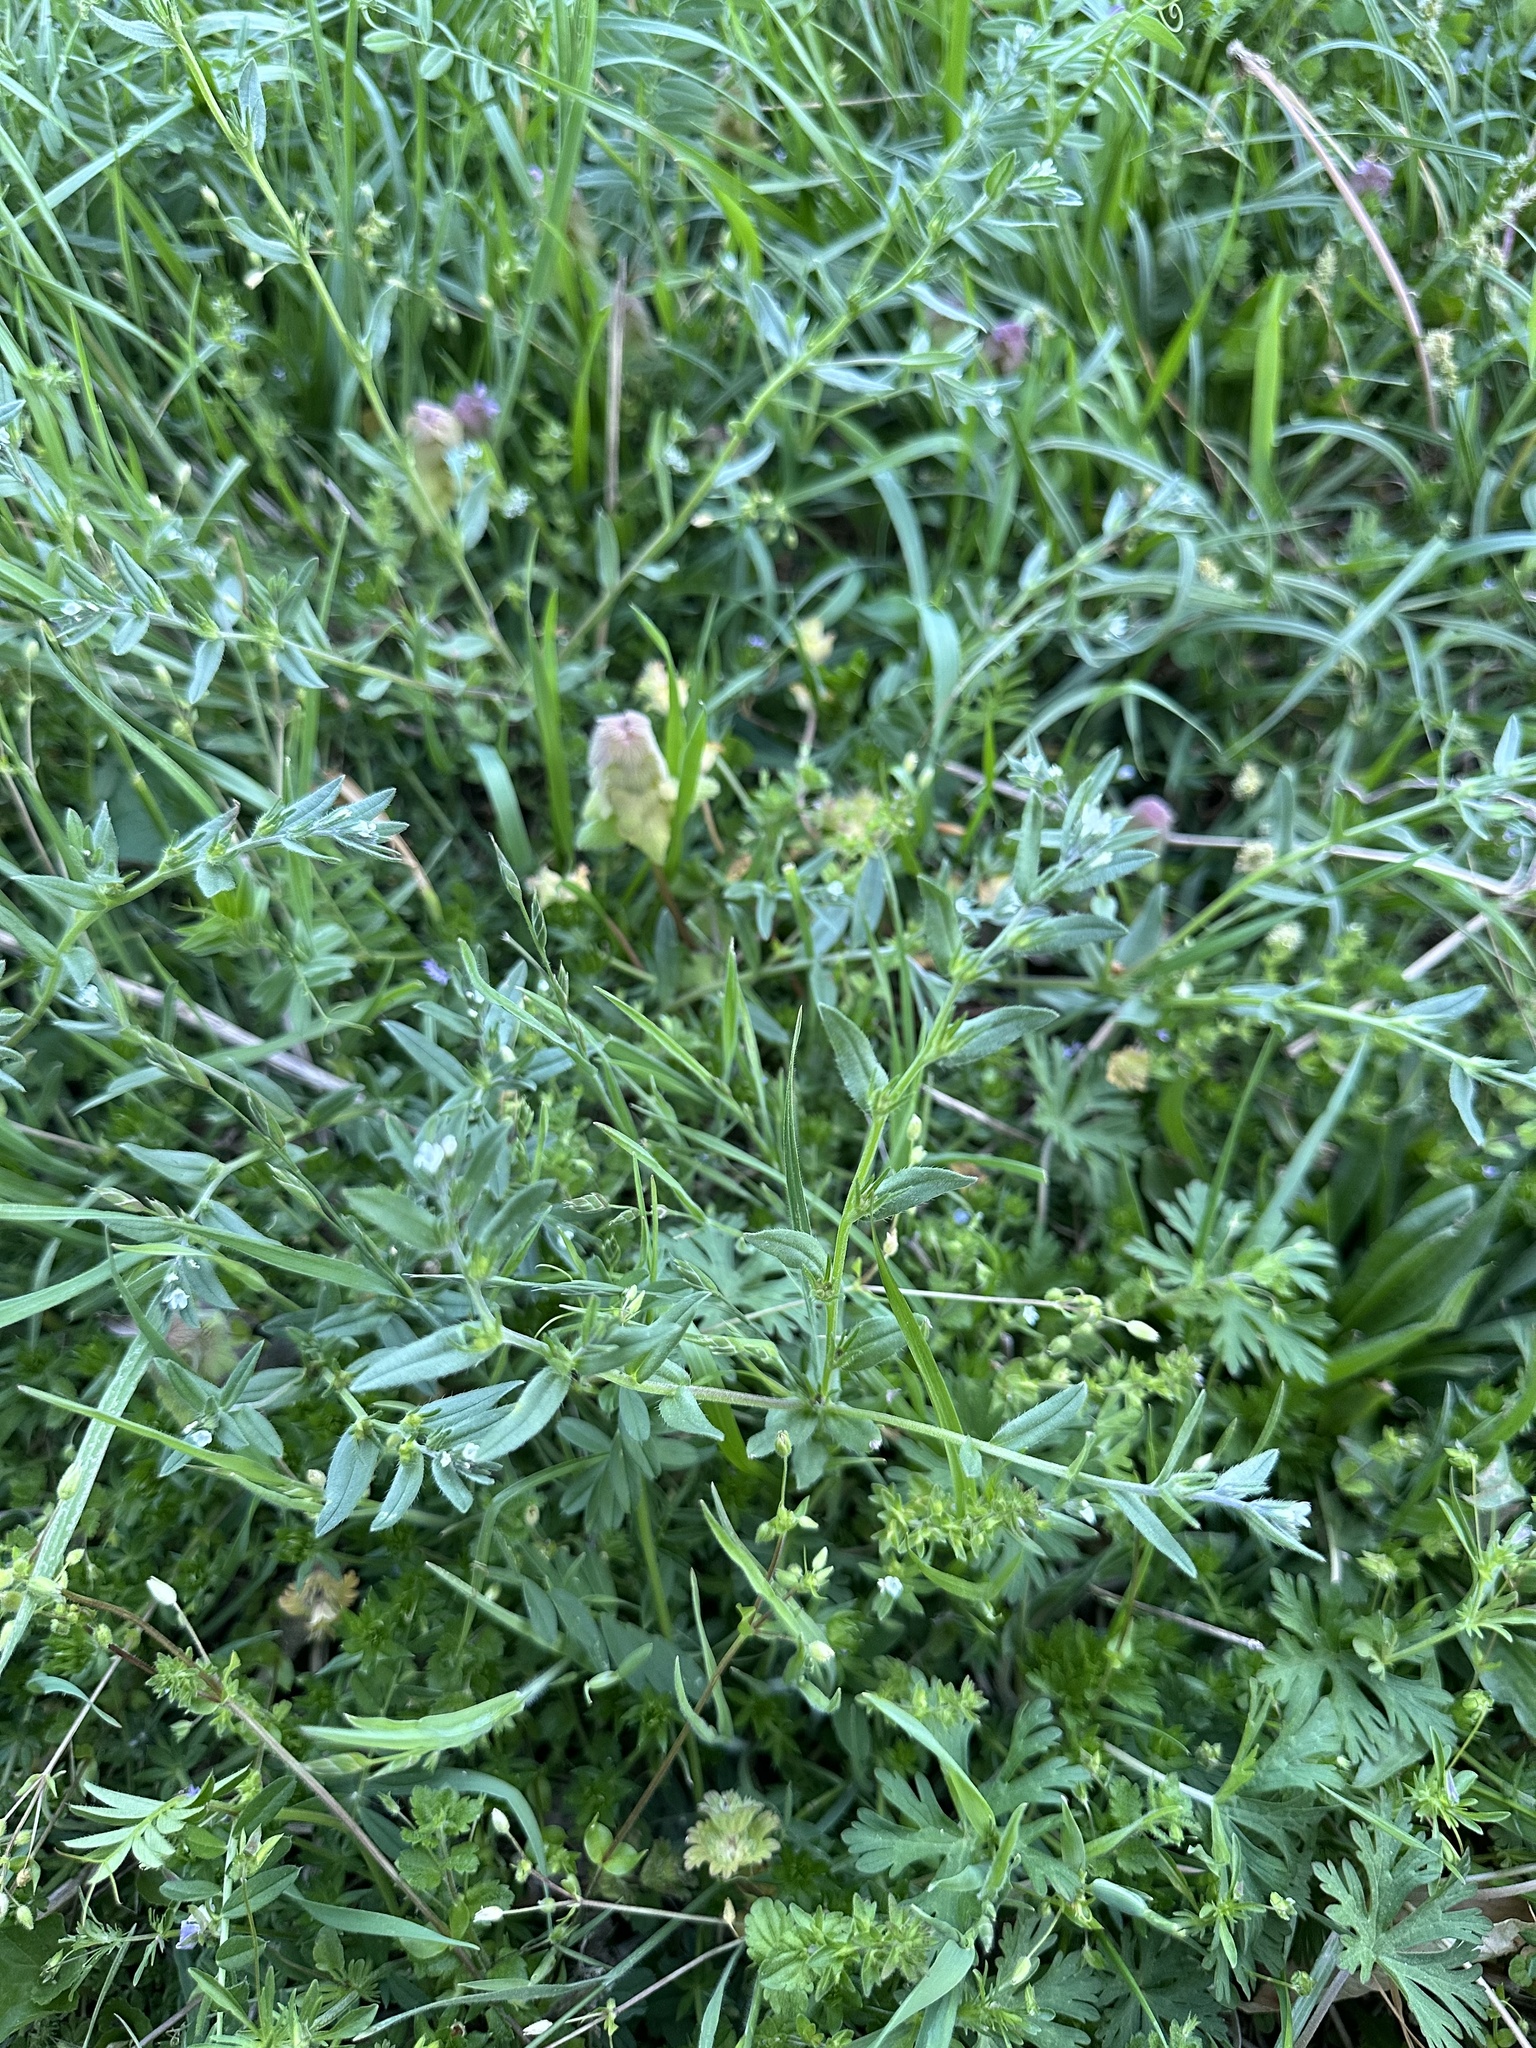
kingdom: Plantae
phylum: Tracheophyta
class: Magnoliopsida
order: Boraginales
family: Boraginaceae
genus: Buglossoides
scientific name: Buglossoides arvensis
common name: Corn gromwell
